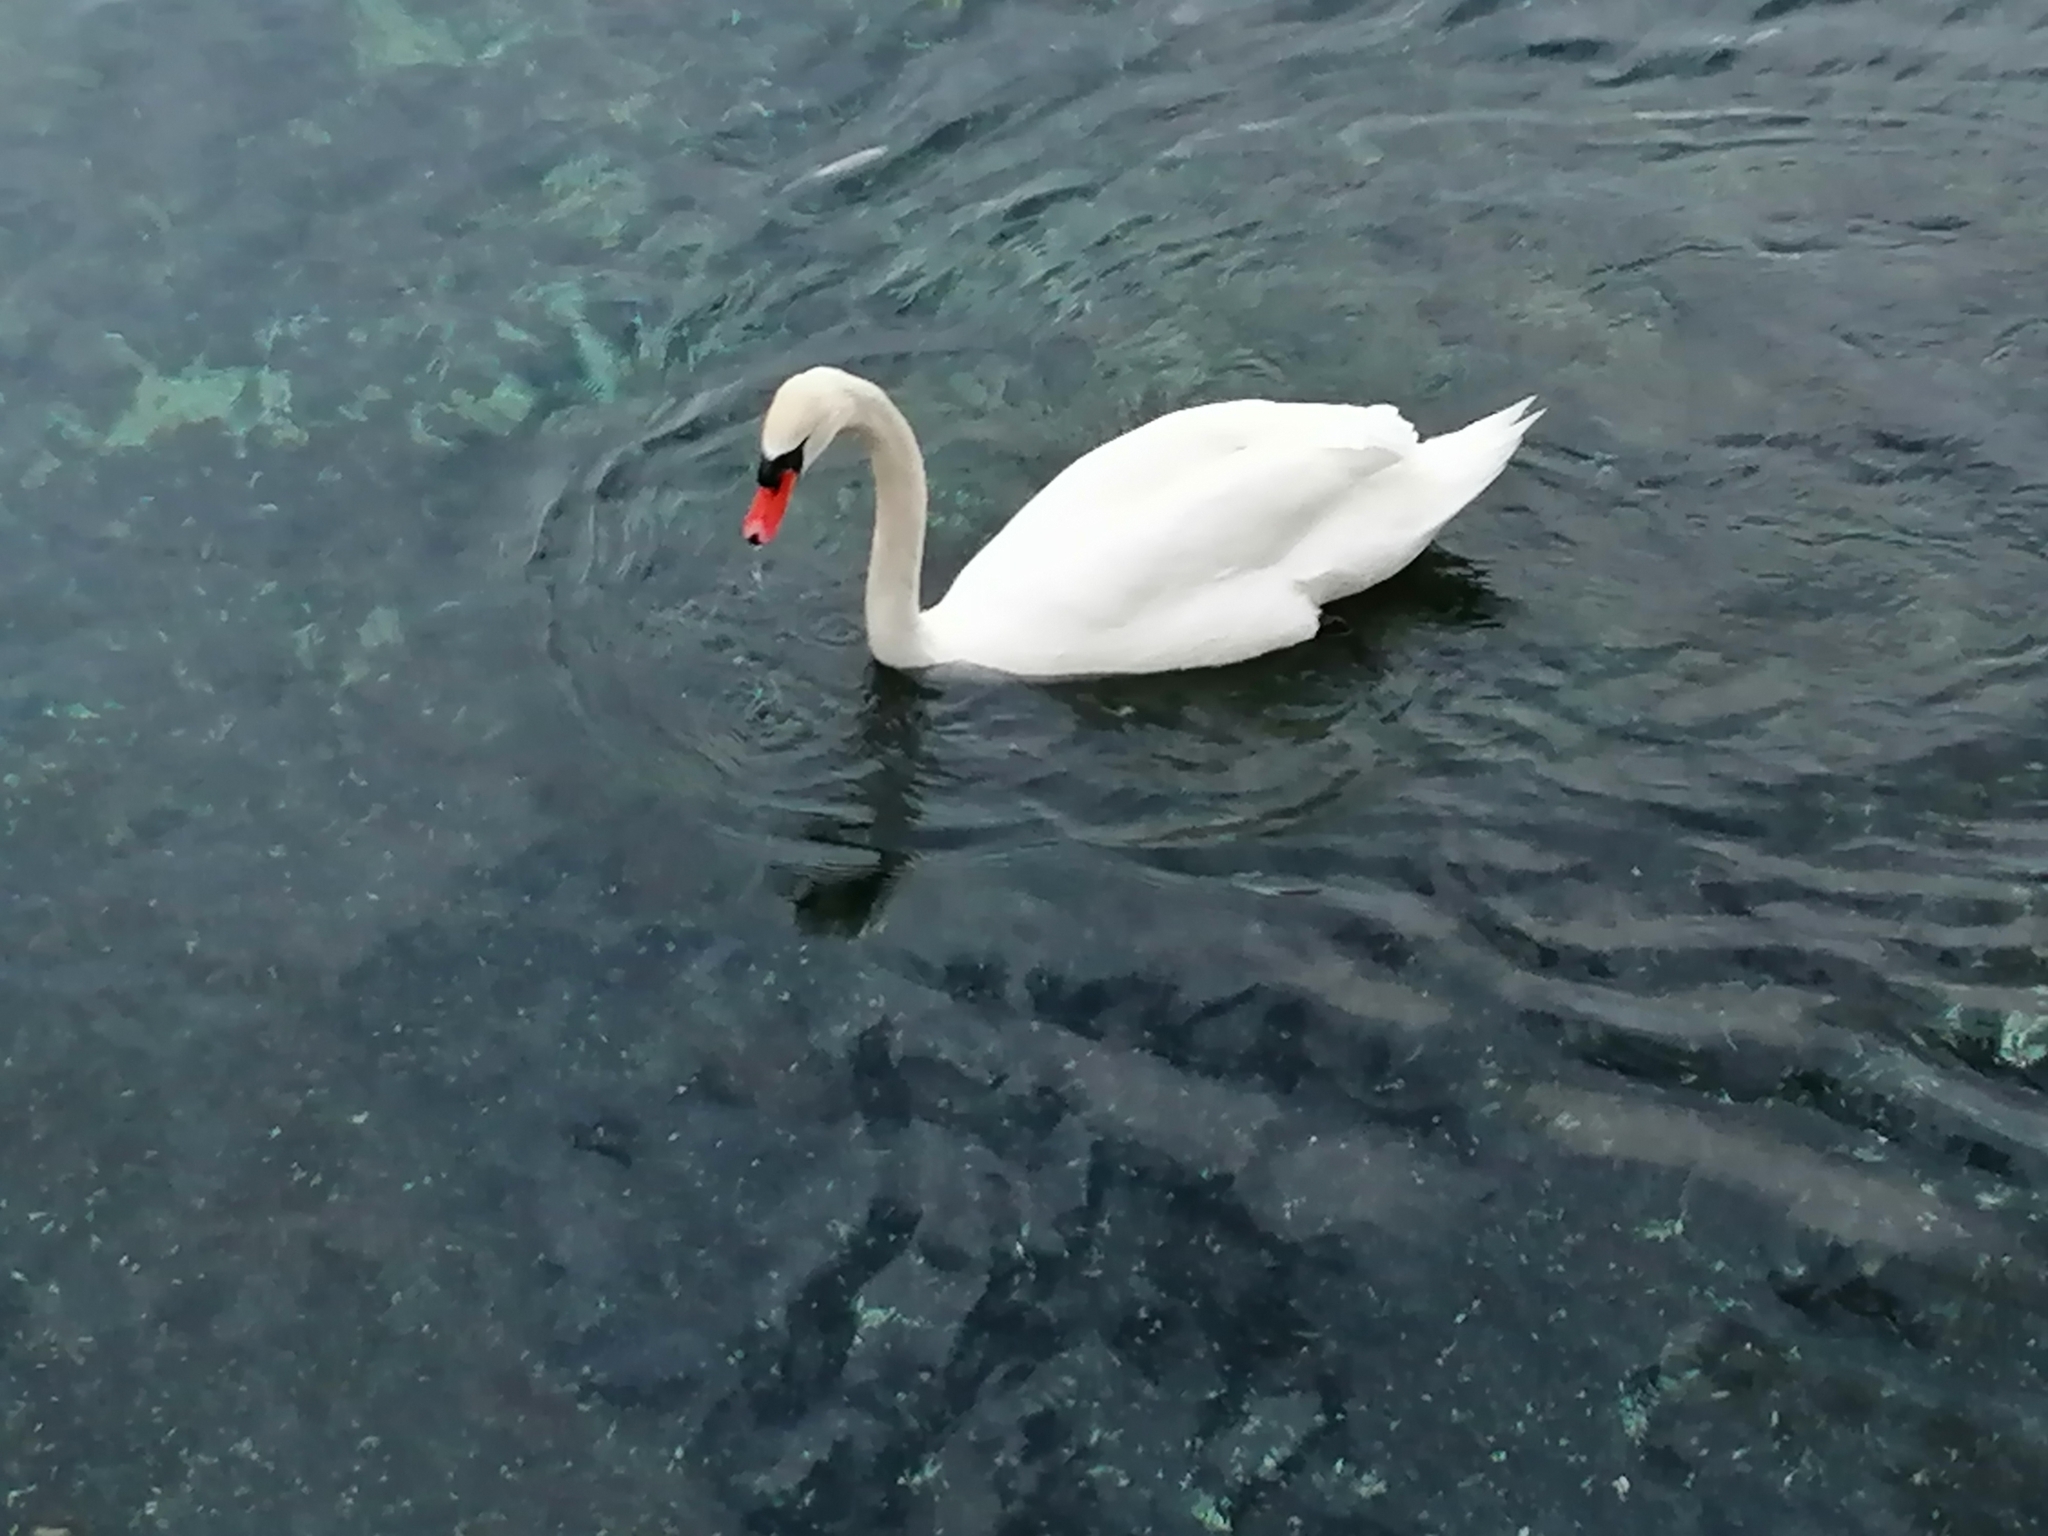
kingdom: Animalia
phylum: Chordata
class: Aves
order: Anseriformes
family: Anatidae
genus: Cygnus
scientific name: Cygnus olor
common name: Mute swan
